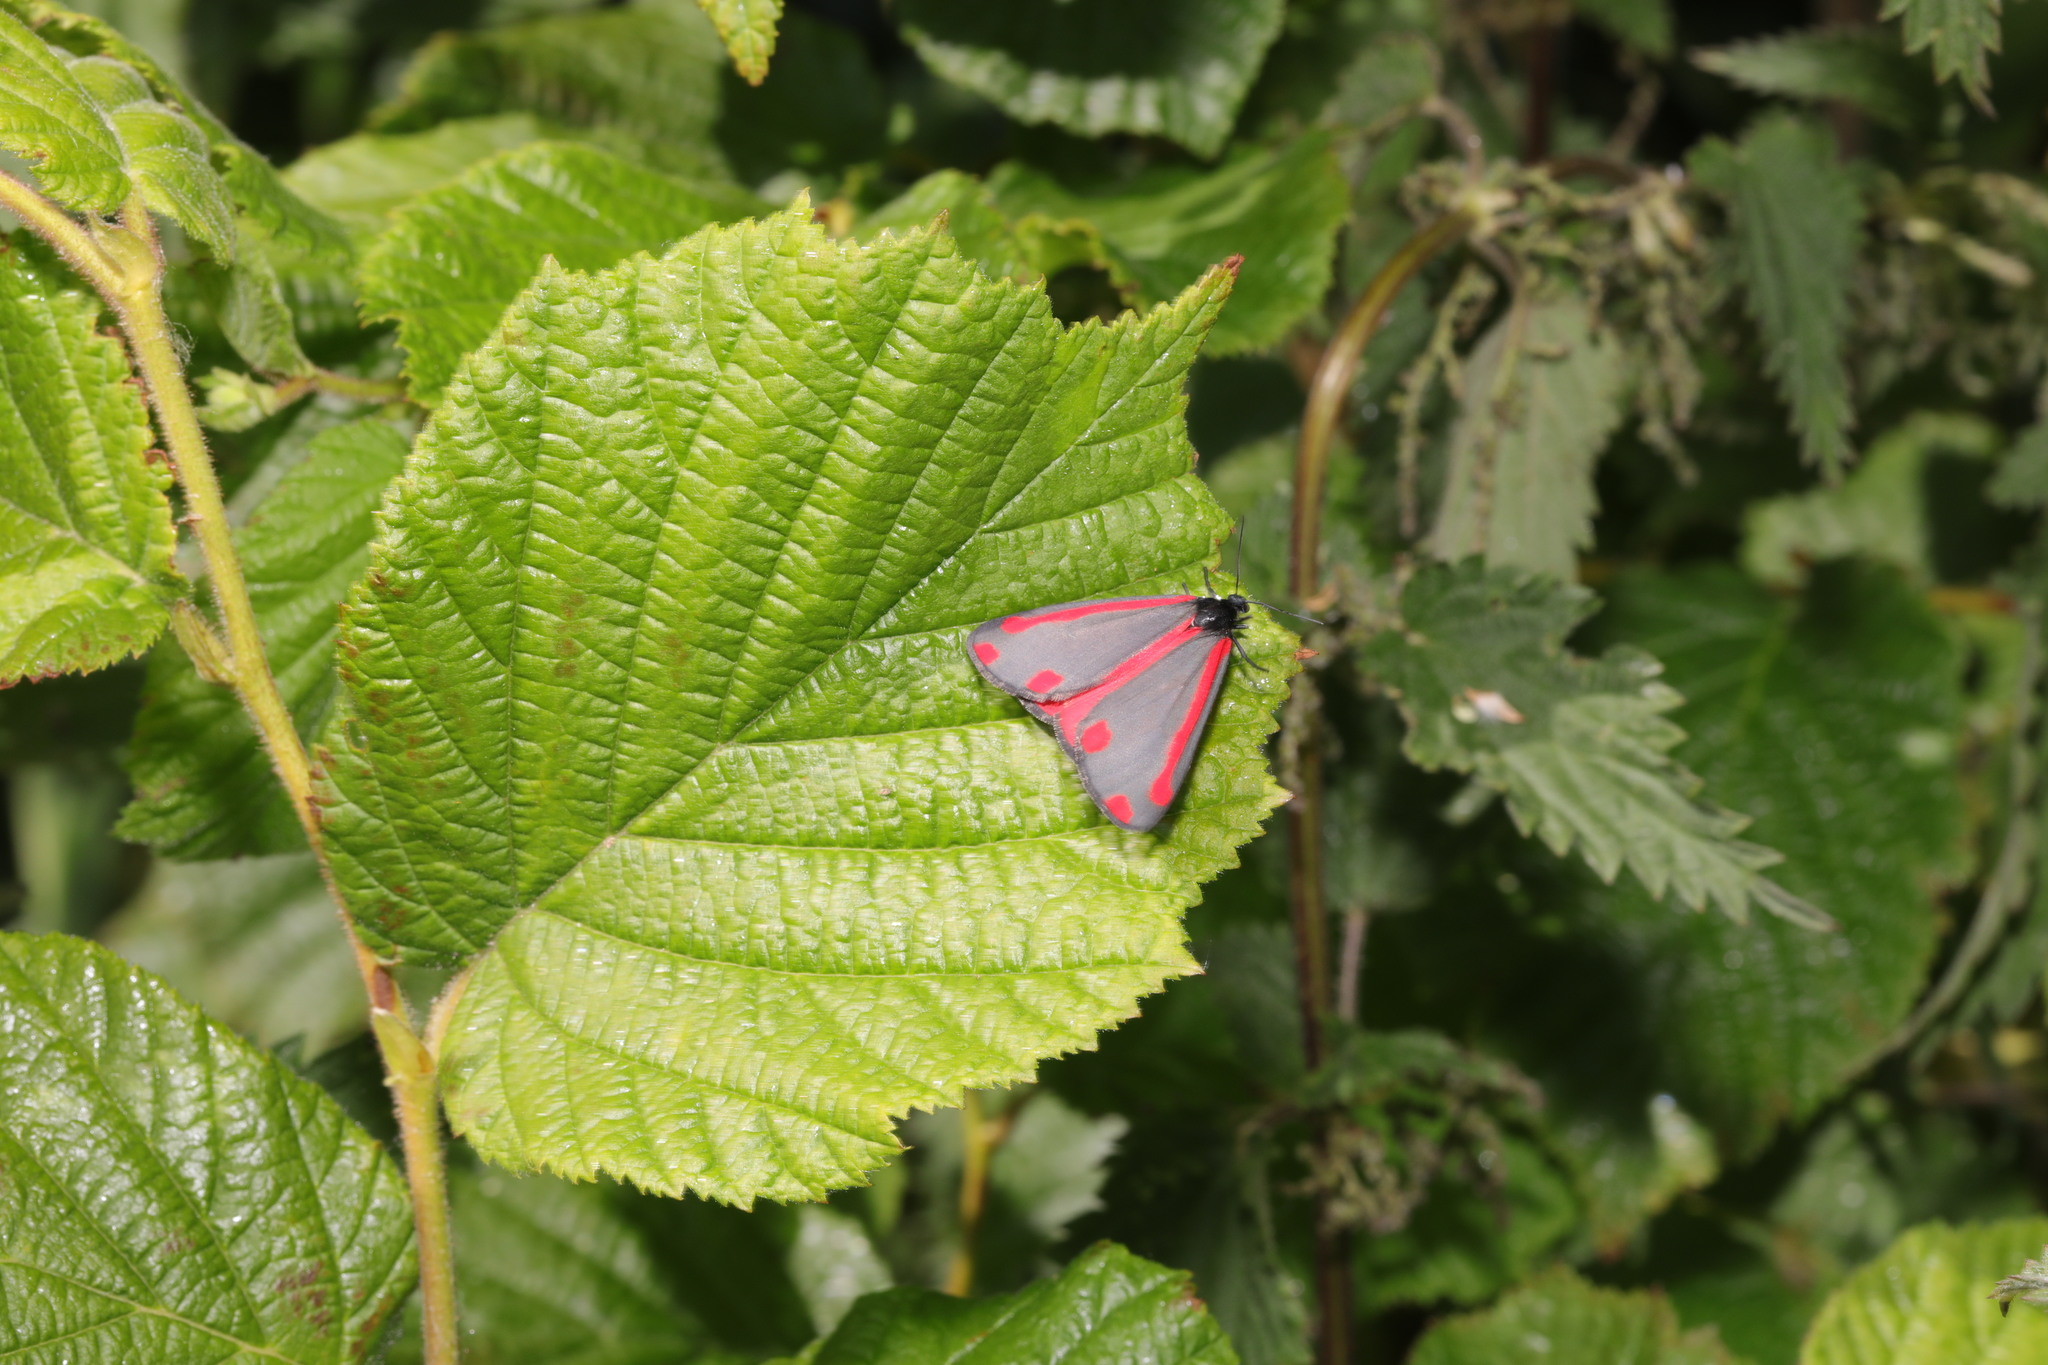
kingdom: Animalia
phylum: Arthropoda
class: Insecta
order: Lepidoptera
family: Erebidae
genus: Tyria
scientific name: Tyria jacobaeae
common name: Cinnabar
